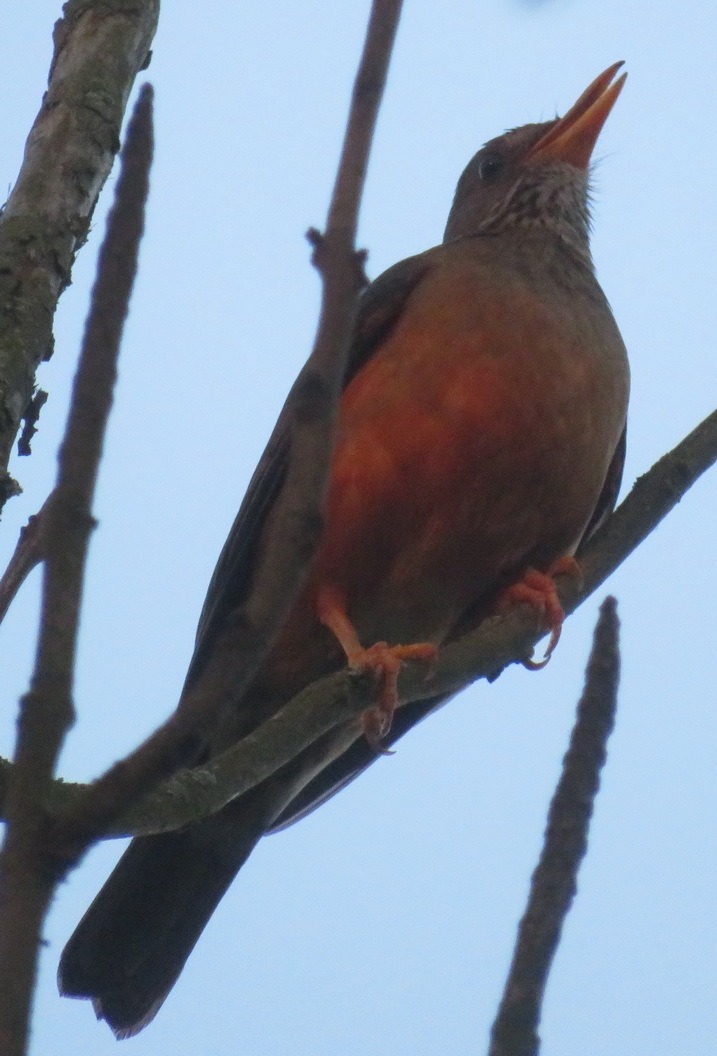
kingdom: Animalia
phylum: Chordata
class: Aves
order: Passeriformes
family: Turdidae
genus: Turdus
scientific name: Turdus olivaceus
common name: Olive thrush
